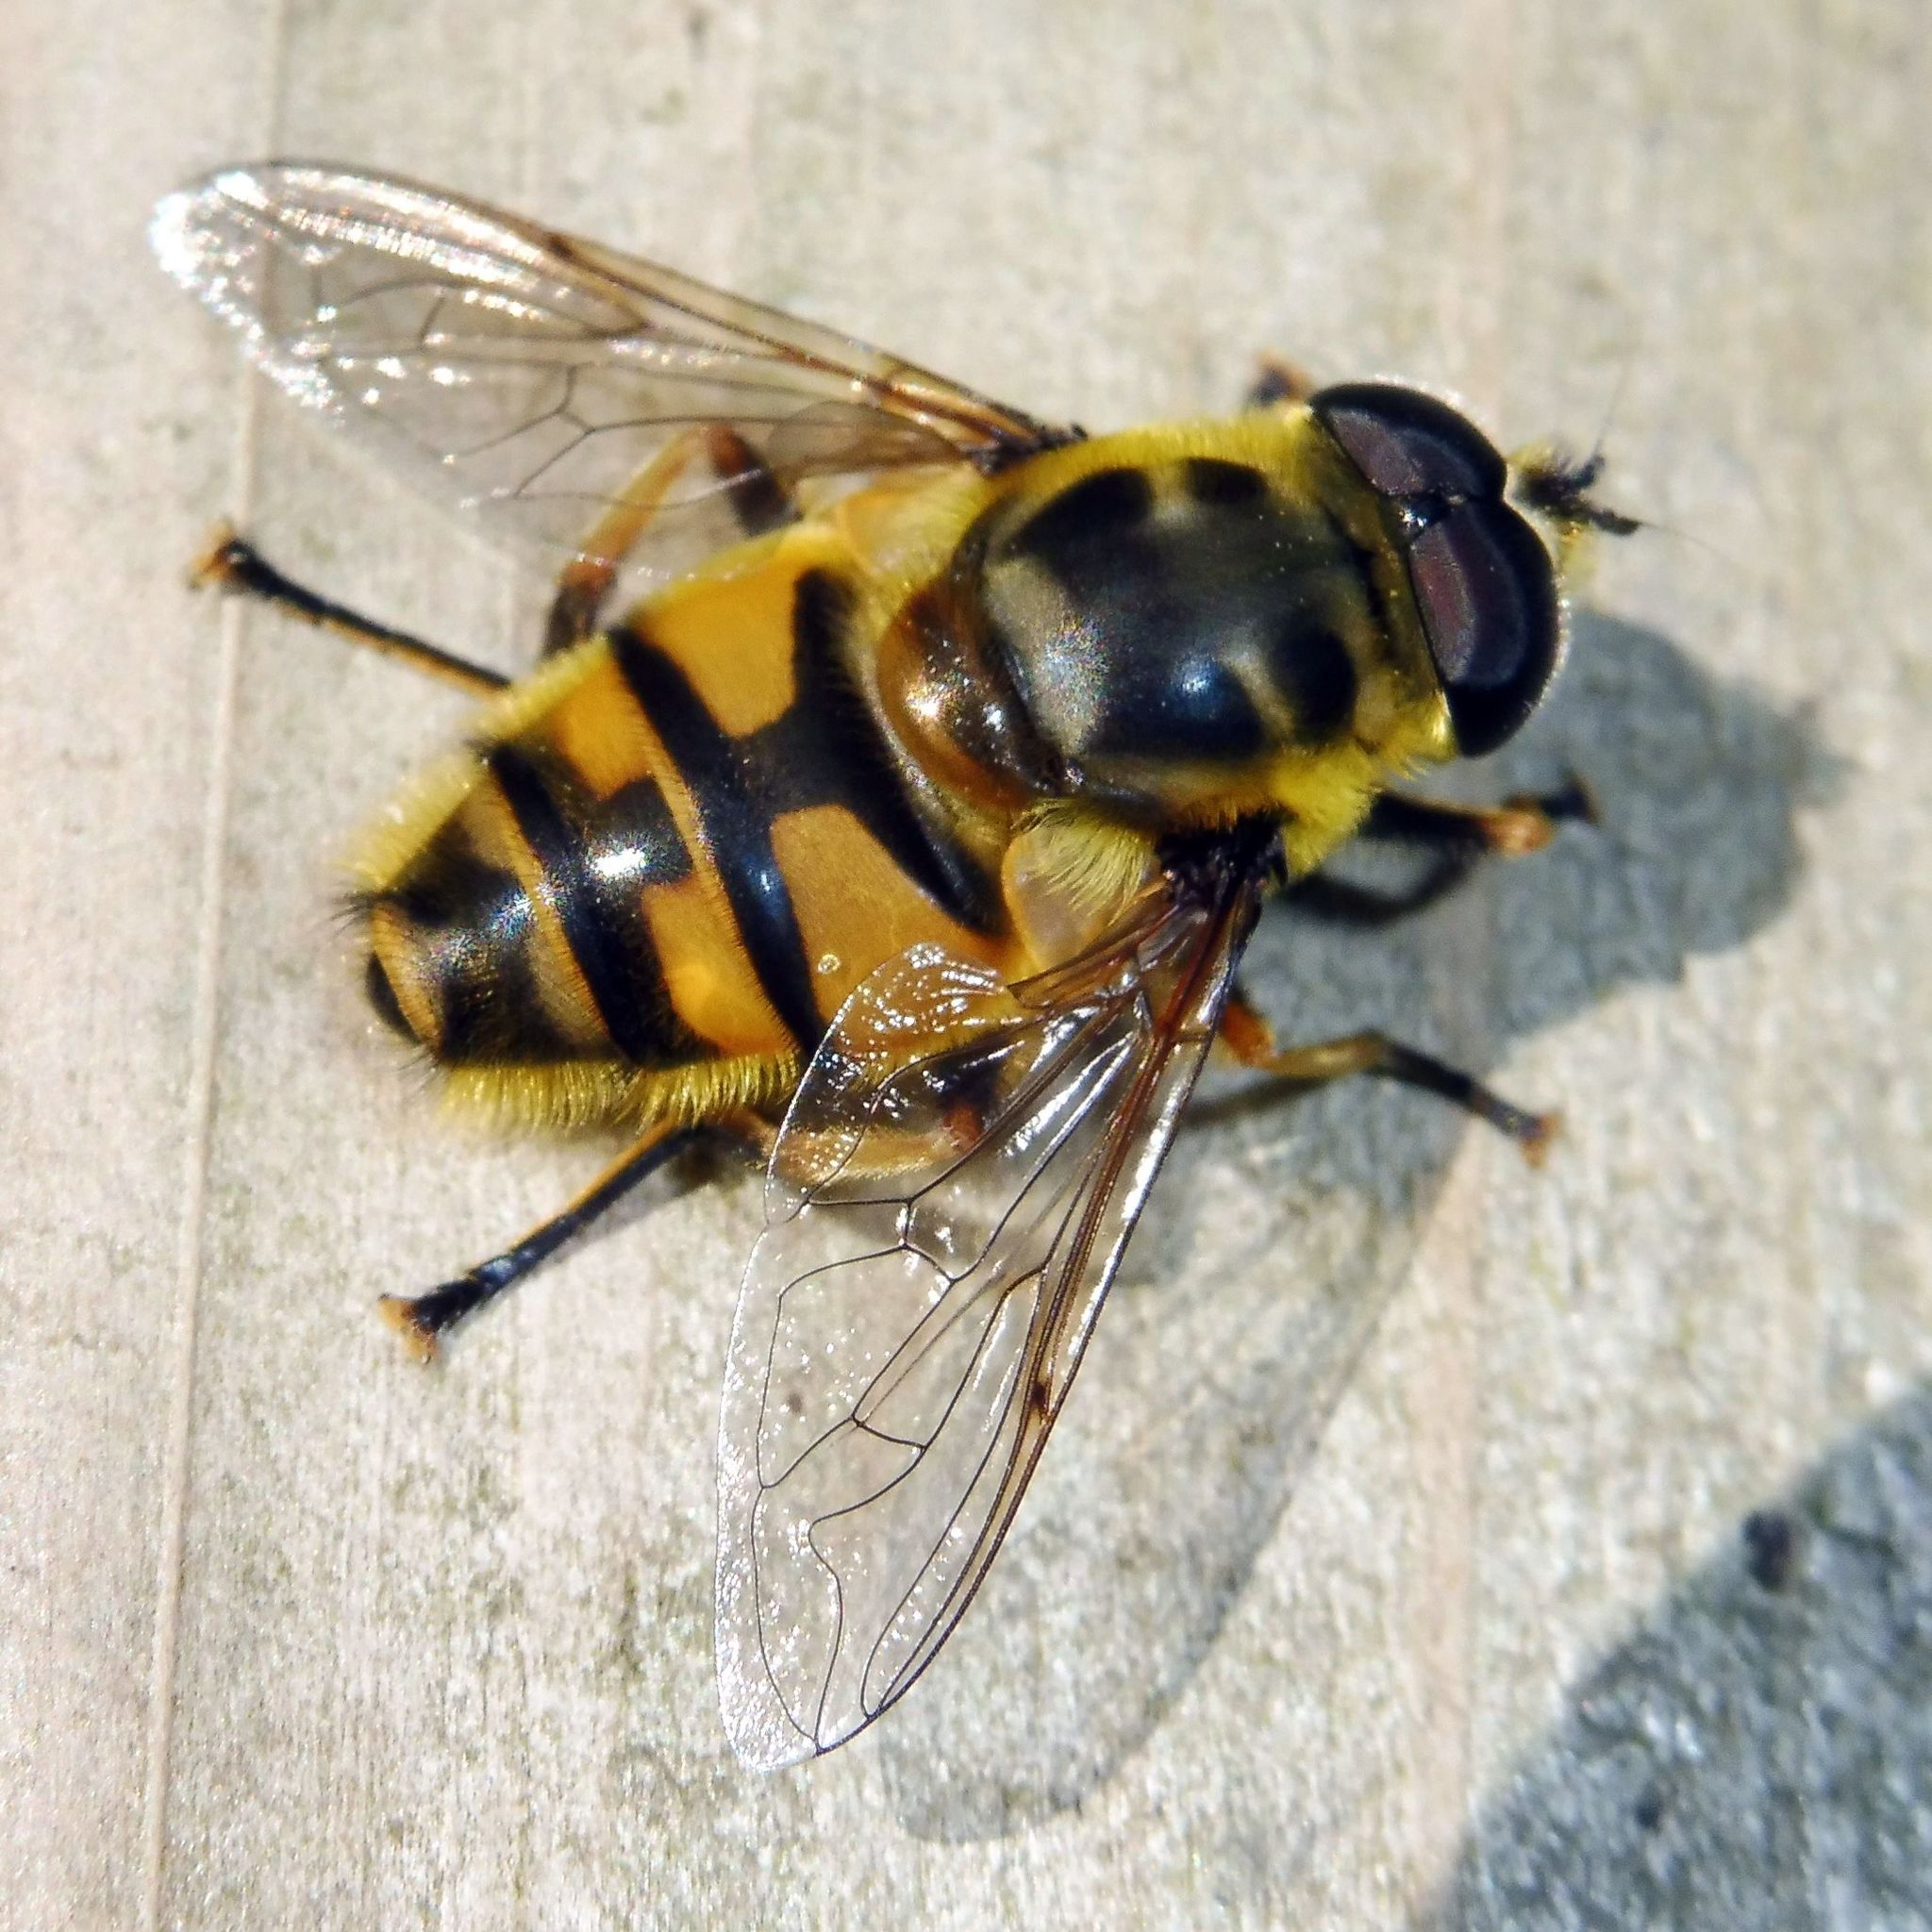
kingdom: Animalia
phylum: Arthropoda
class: Insecta
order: Diptera
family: Syrphidae
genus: Myathropa
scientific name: Myathropa florea
